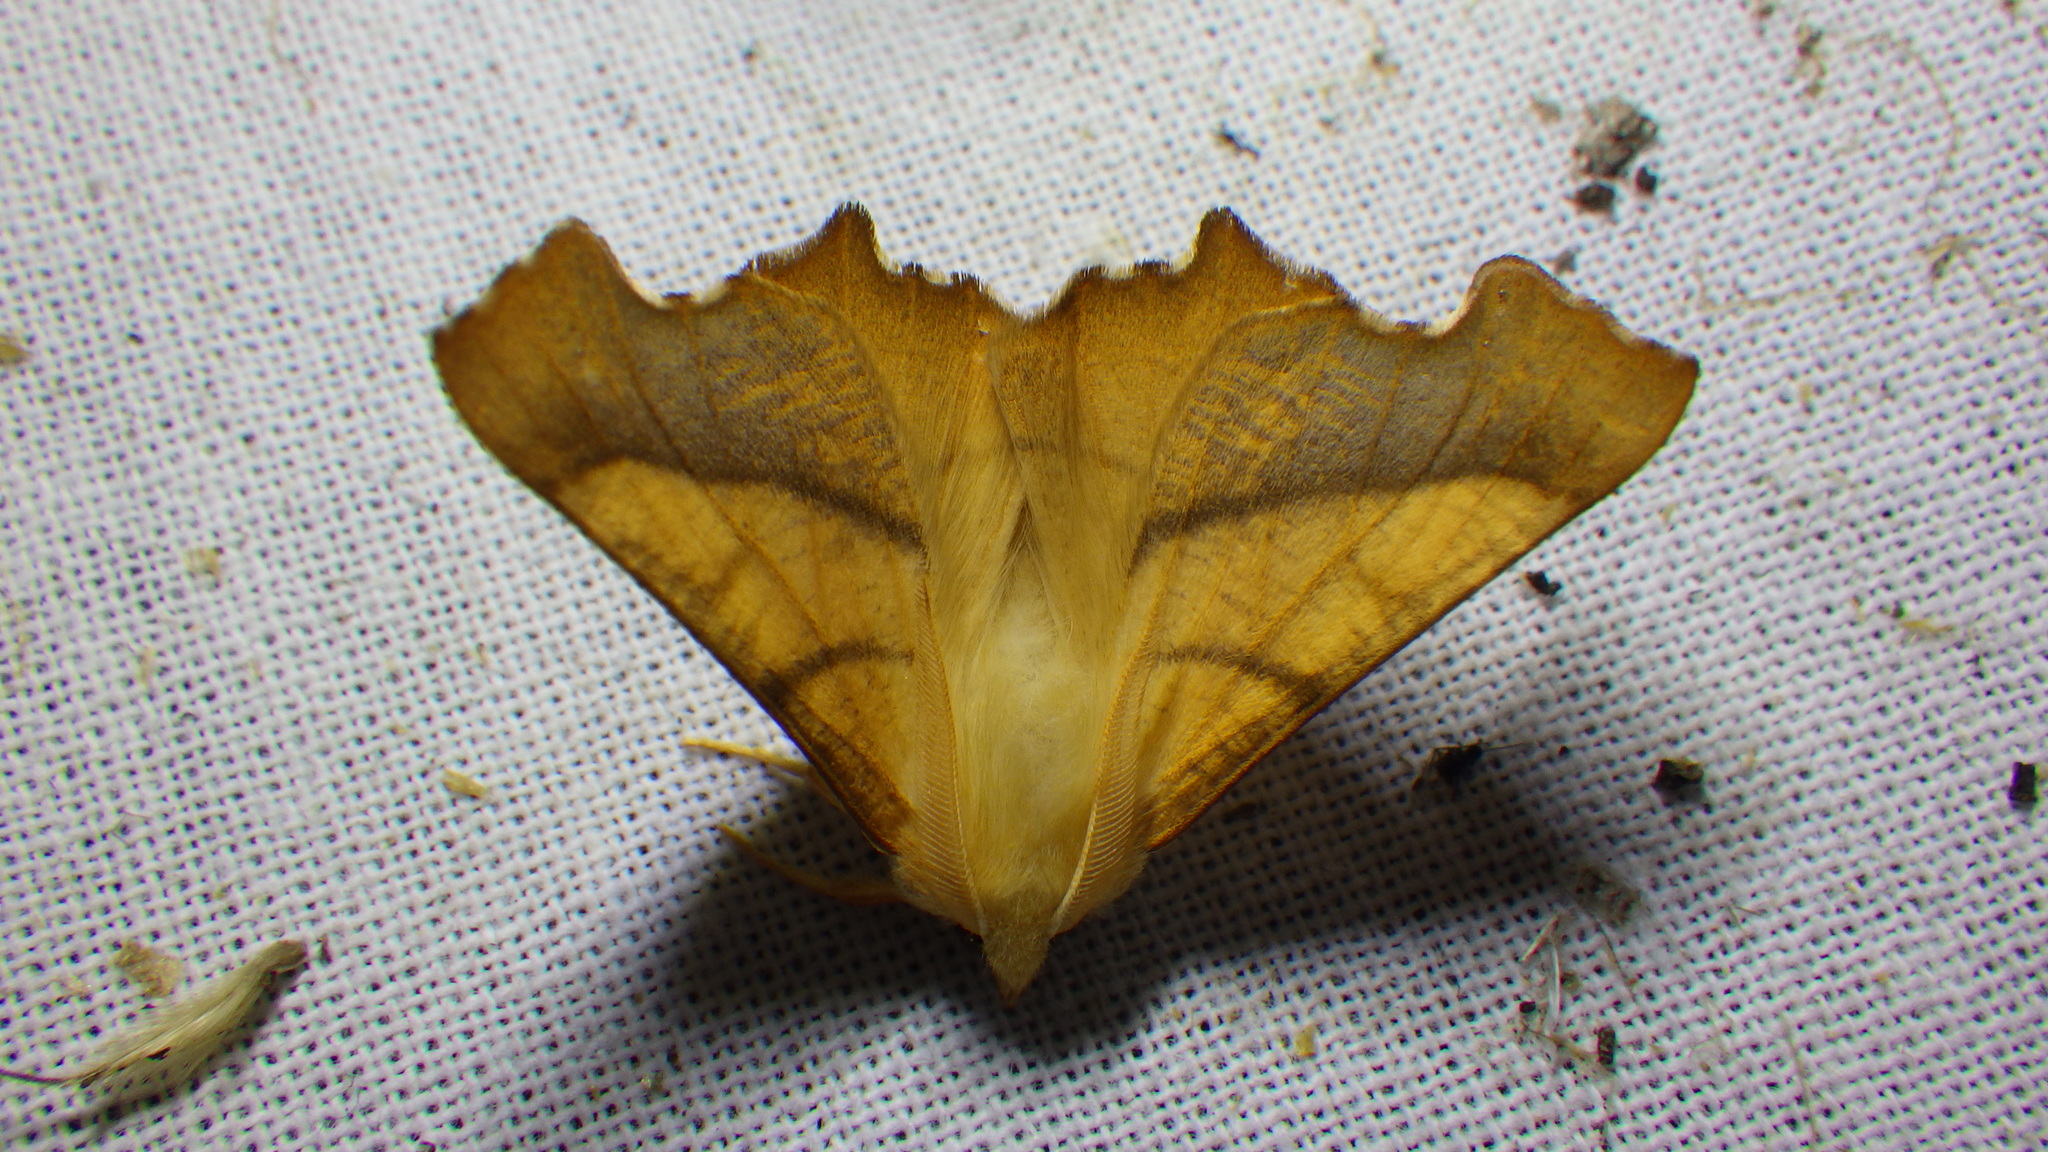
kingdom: Animalia
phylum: Arthropoda
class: Insecta
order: Lepidoptera
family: Geometridae
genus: Ennomos
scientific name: Ennomos fuscantaria
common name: Dusky thorn
